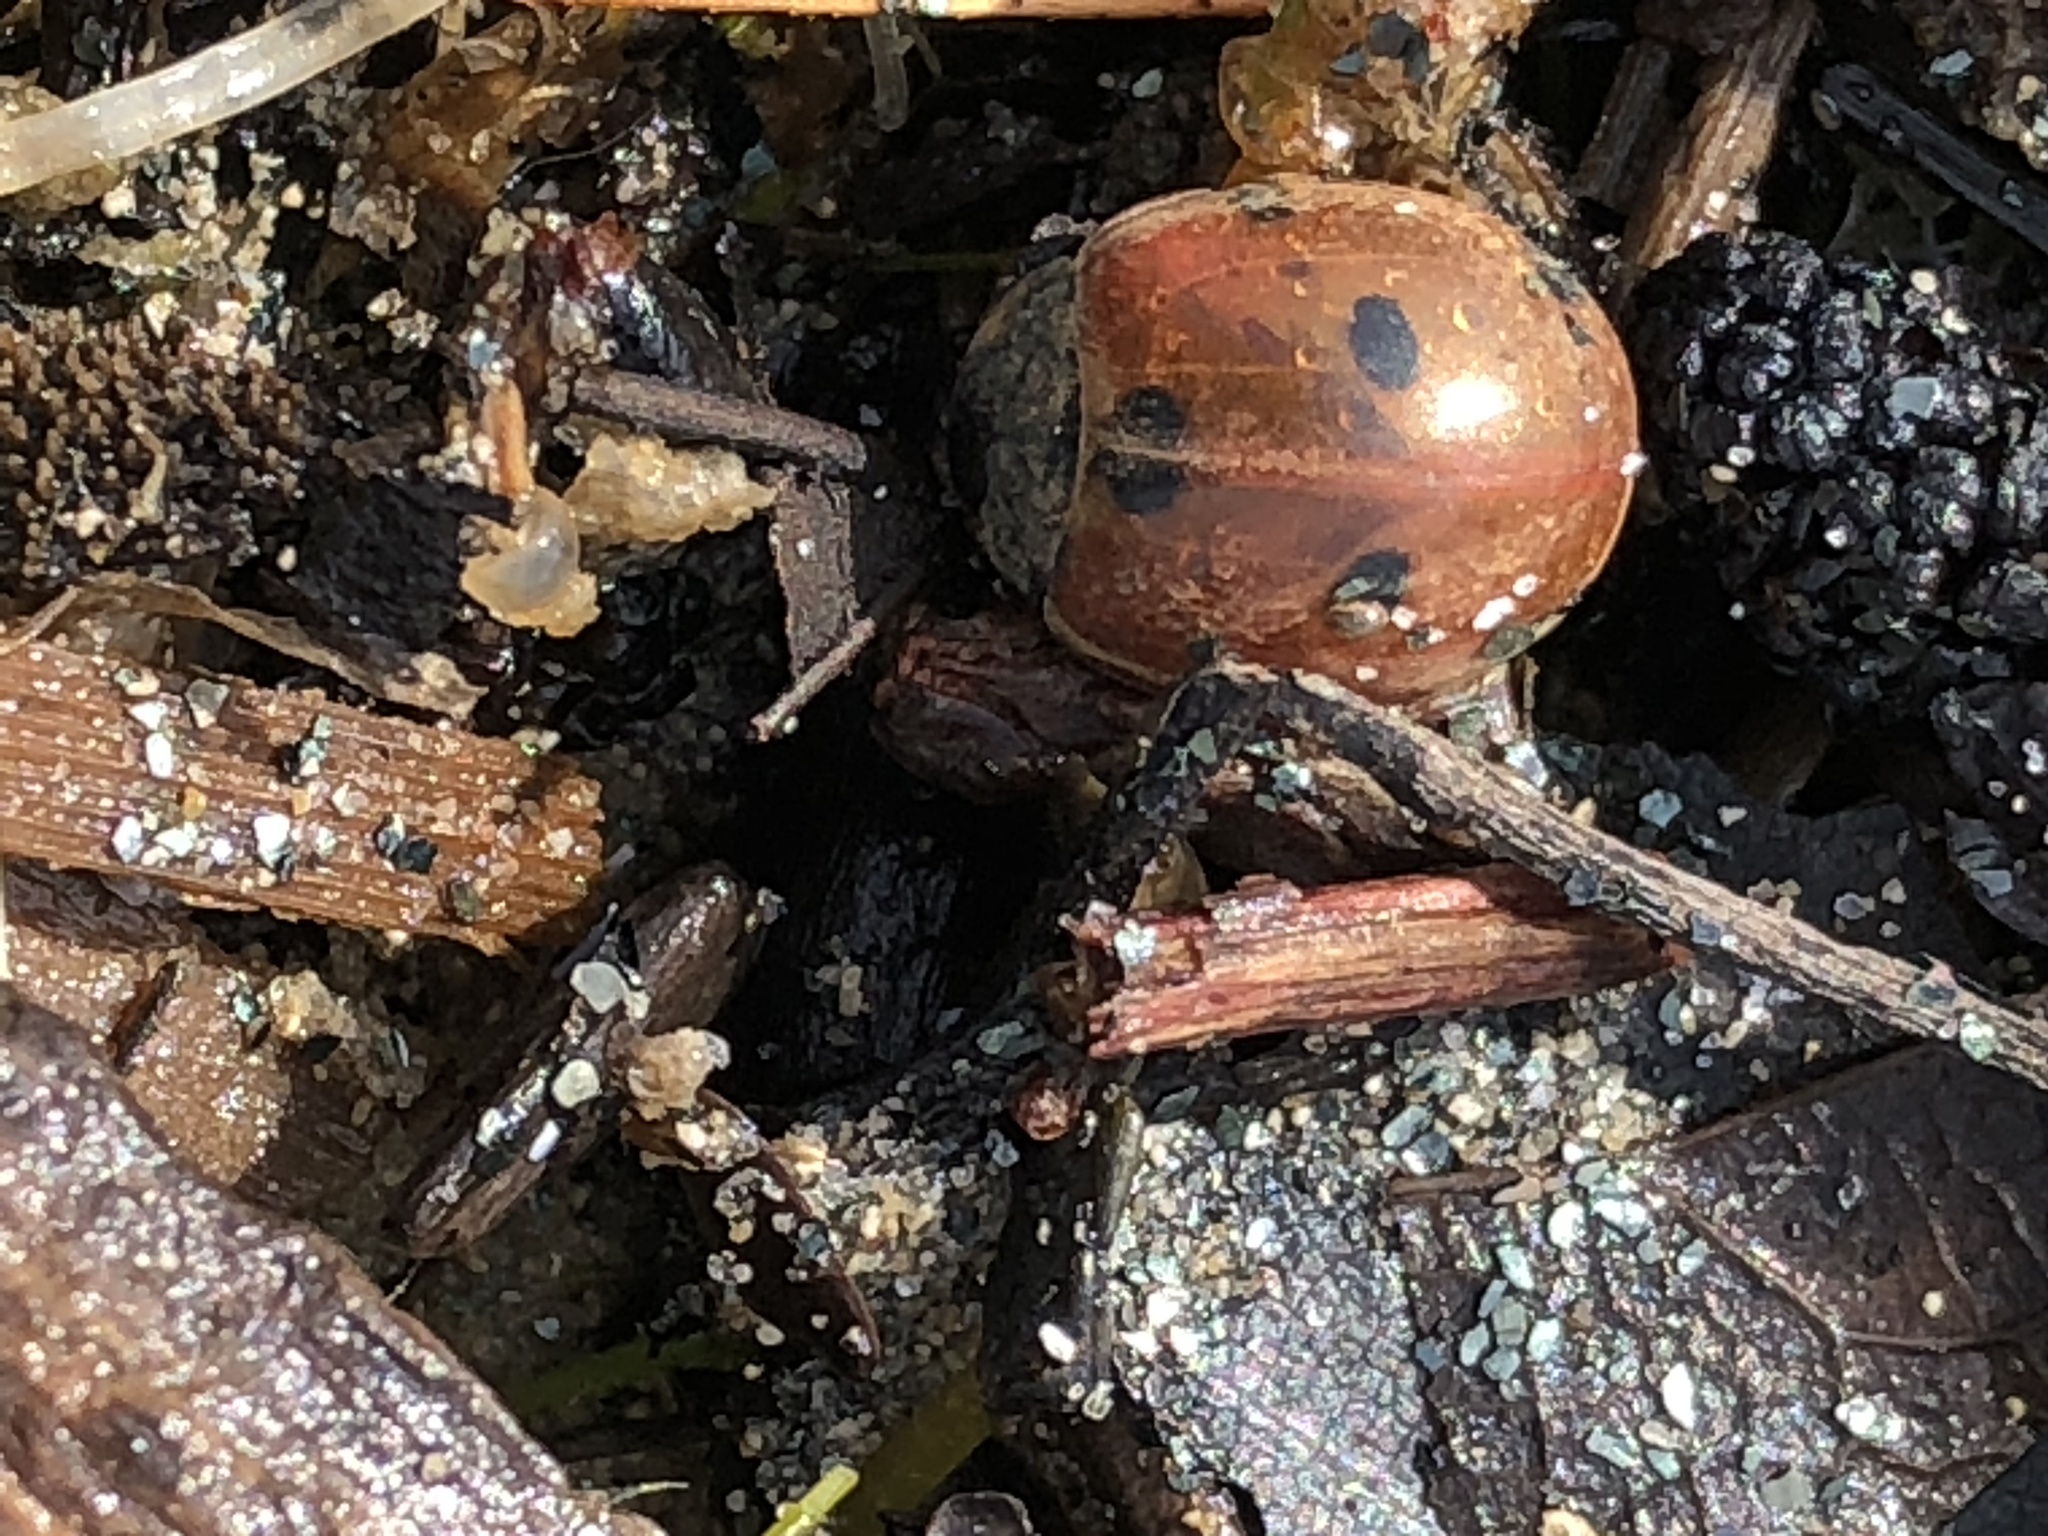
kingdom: Animalia
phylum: Arthropoda
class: Insecta
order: Coleoptera
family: Coccinellidae
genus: Coccinella
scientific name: Coccinella septempunctata
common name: Sevenspotted lady beetle
